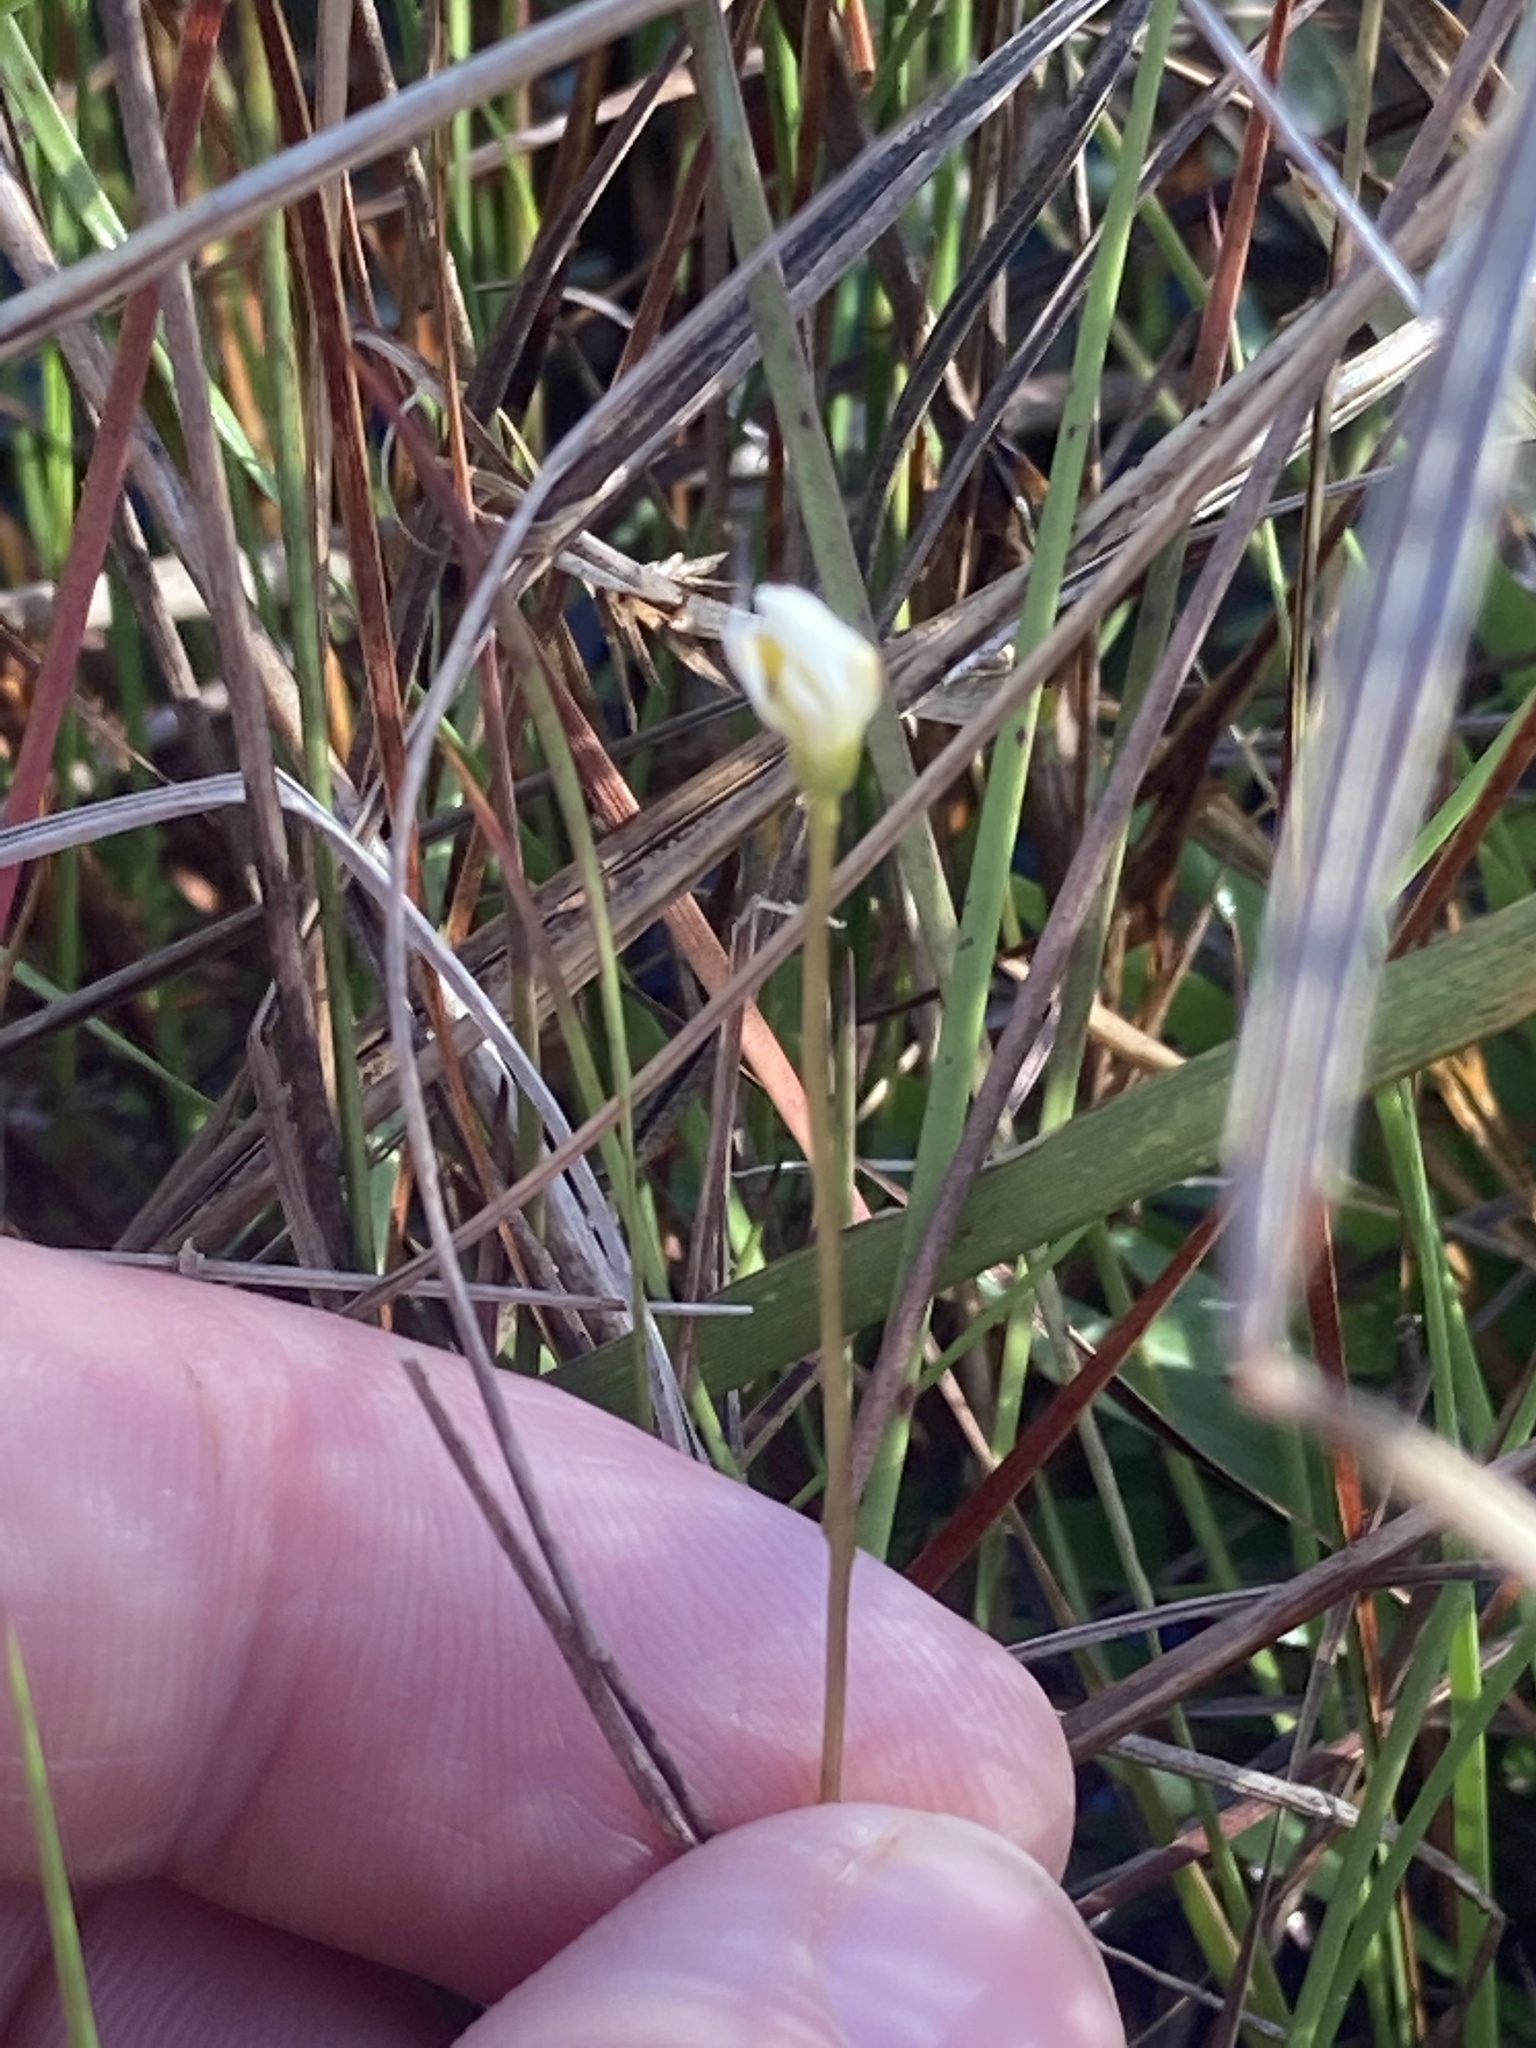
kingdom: Plantae
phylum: Tracheophyta
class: Magnoliopsida
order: Gentianales
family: Gentianaceae
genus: Bartonia
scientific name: Bartonia verna
